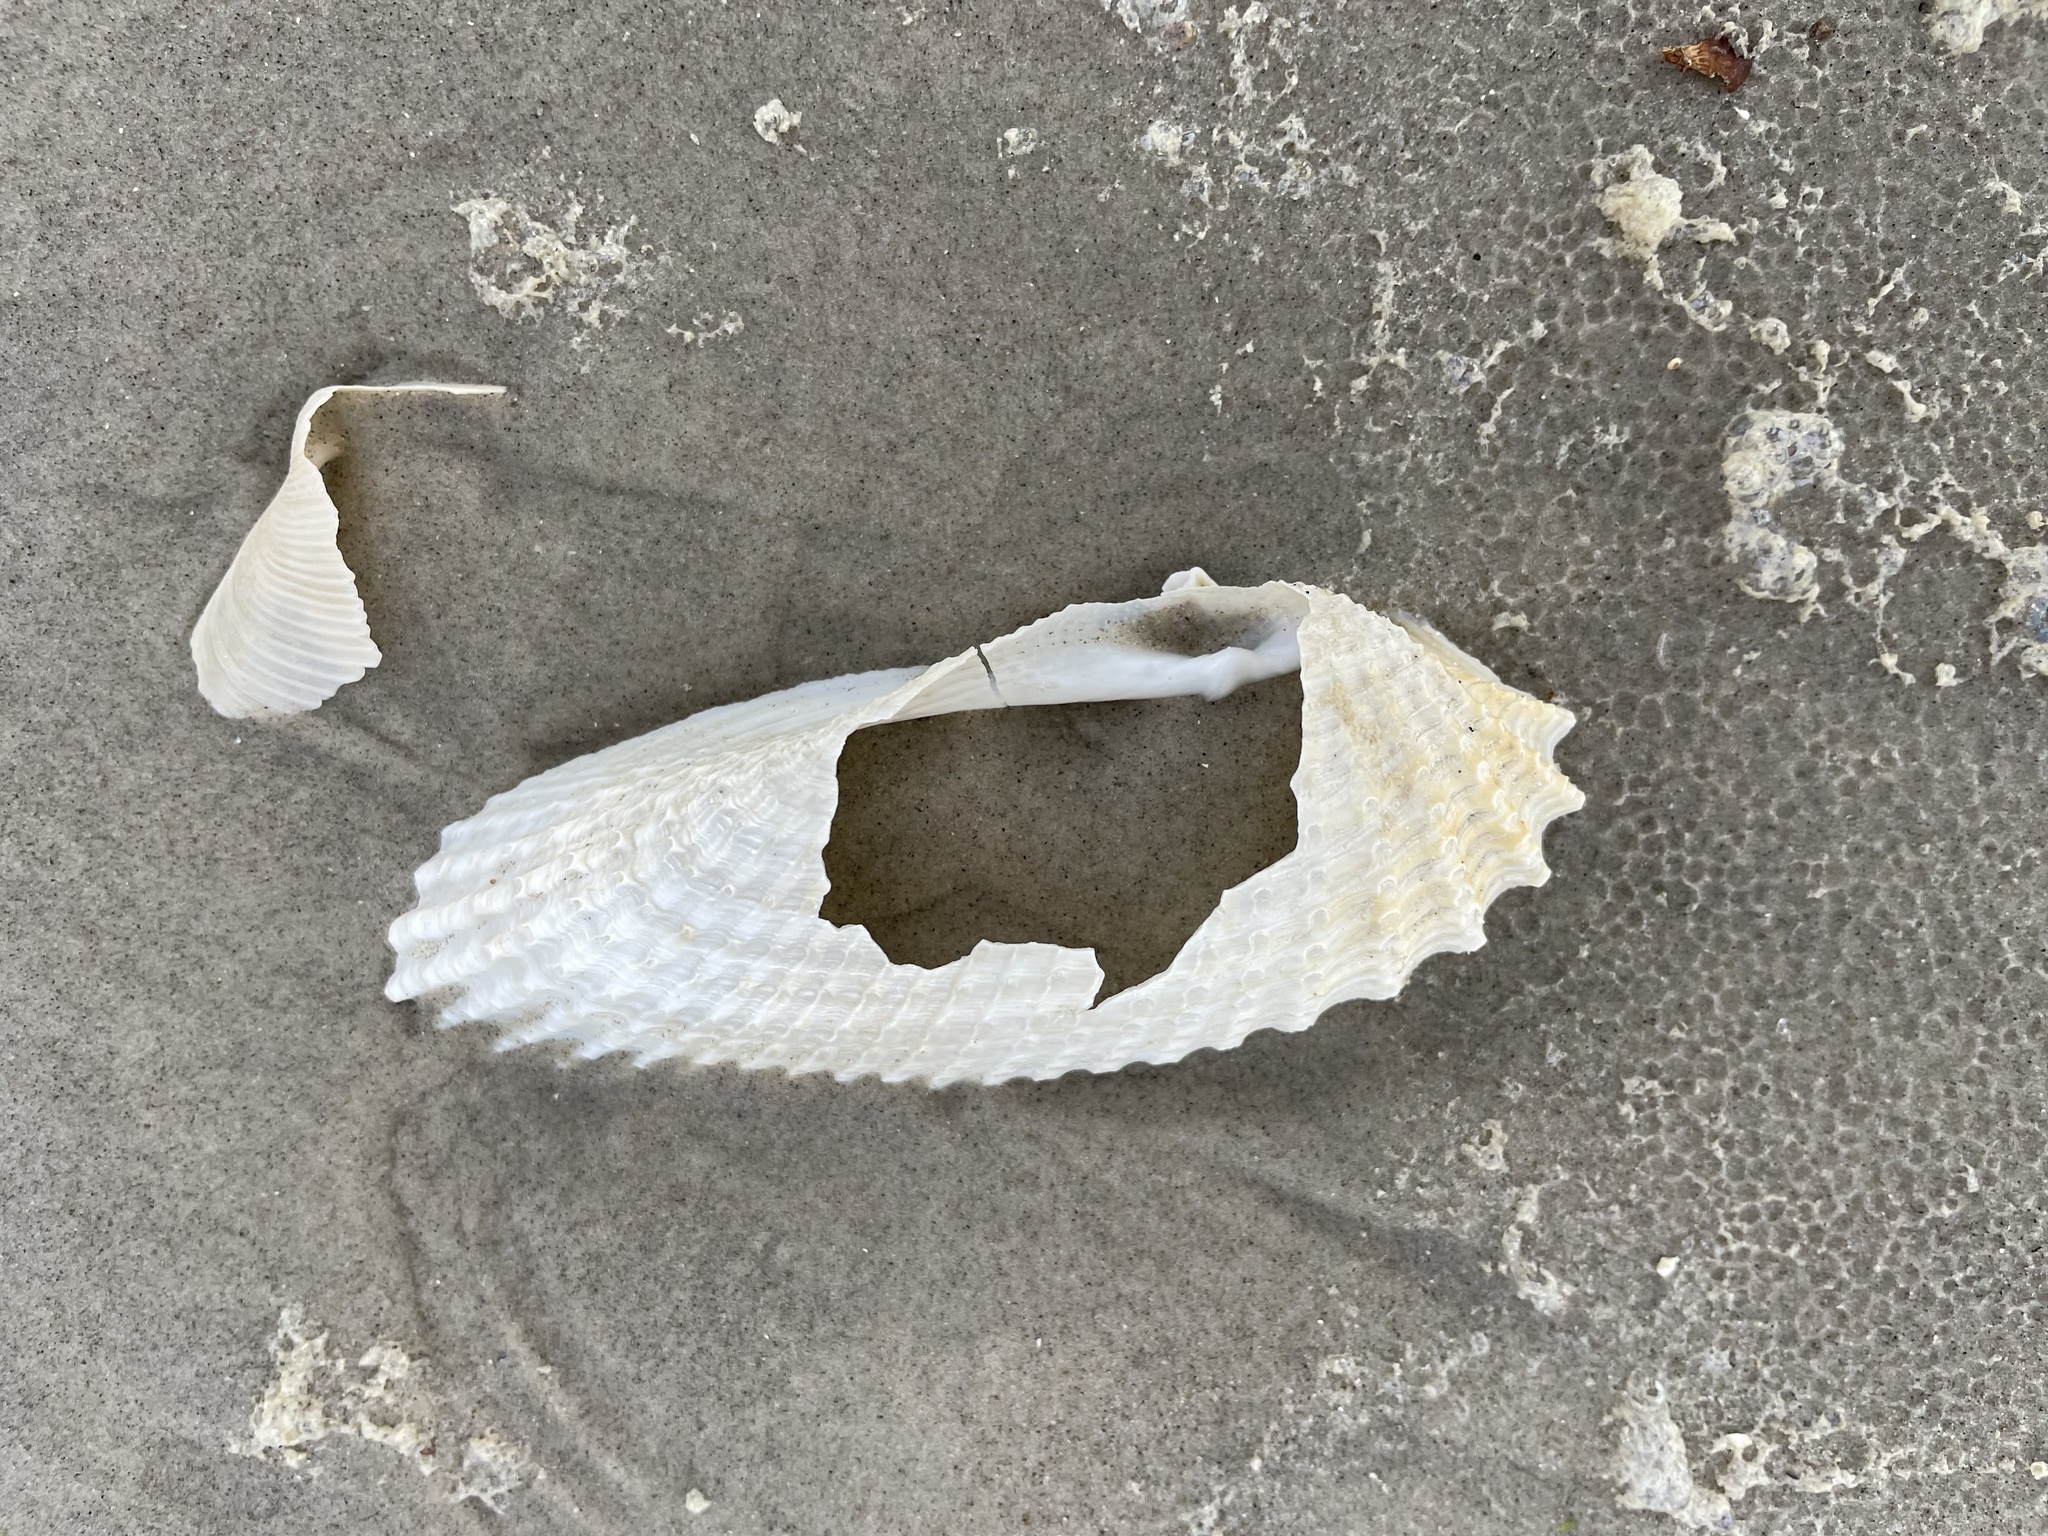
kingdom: Animalia
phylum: Mollusca
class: Bivalvia
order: Myida
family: Pholadidae
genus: Cyrtopleura
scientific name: Cyrtopleura costata
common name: Angel wing
